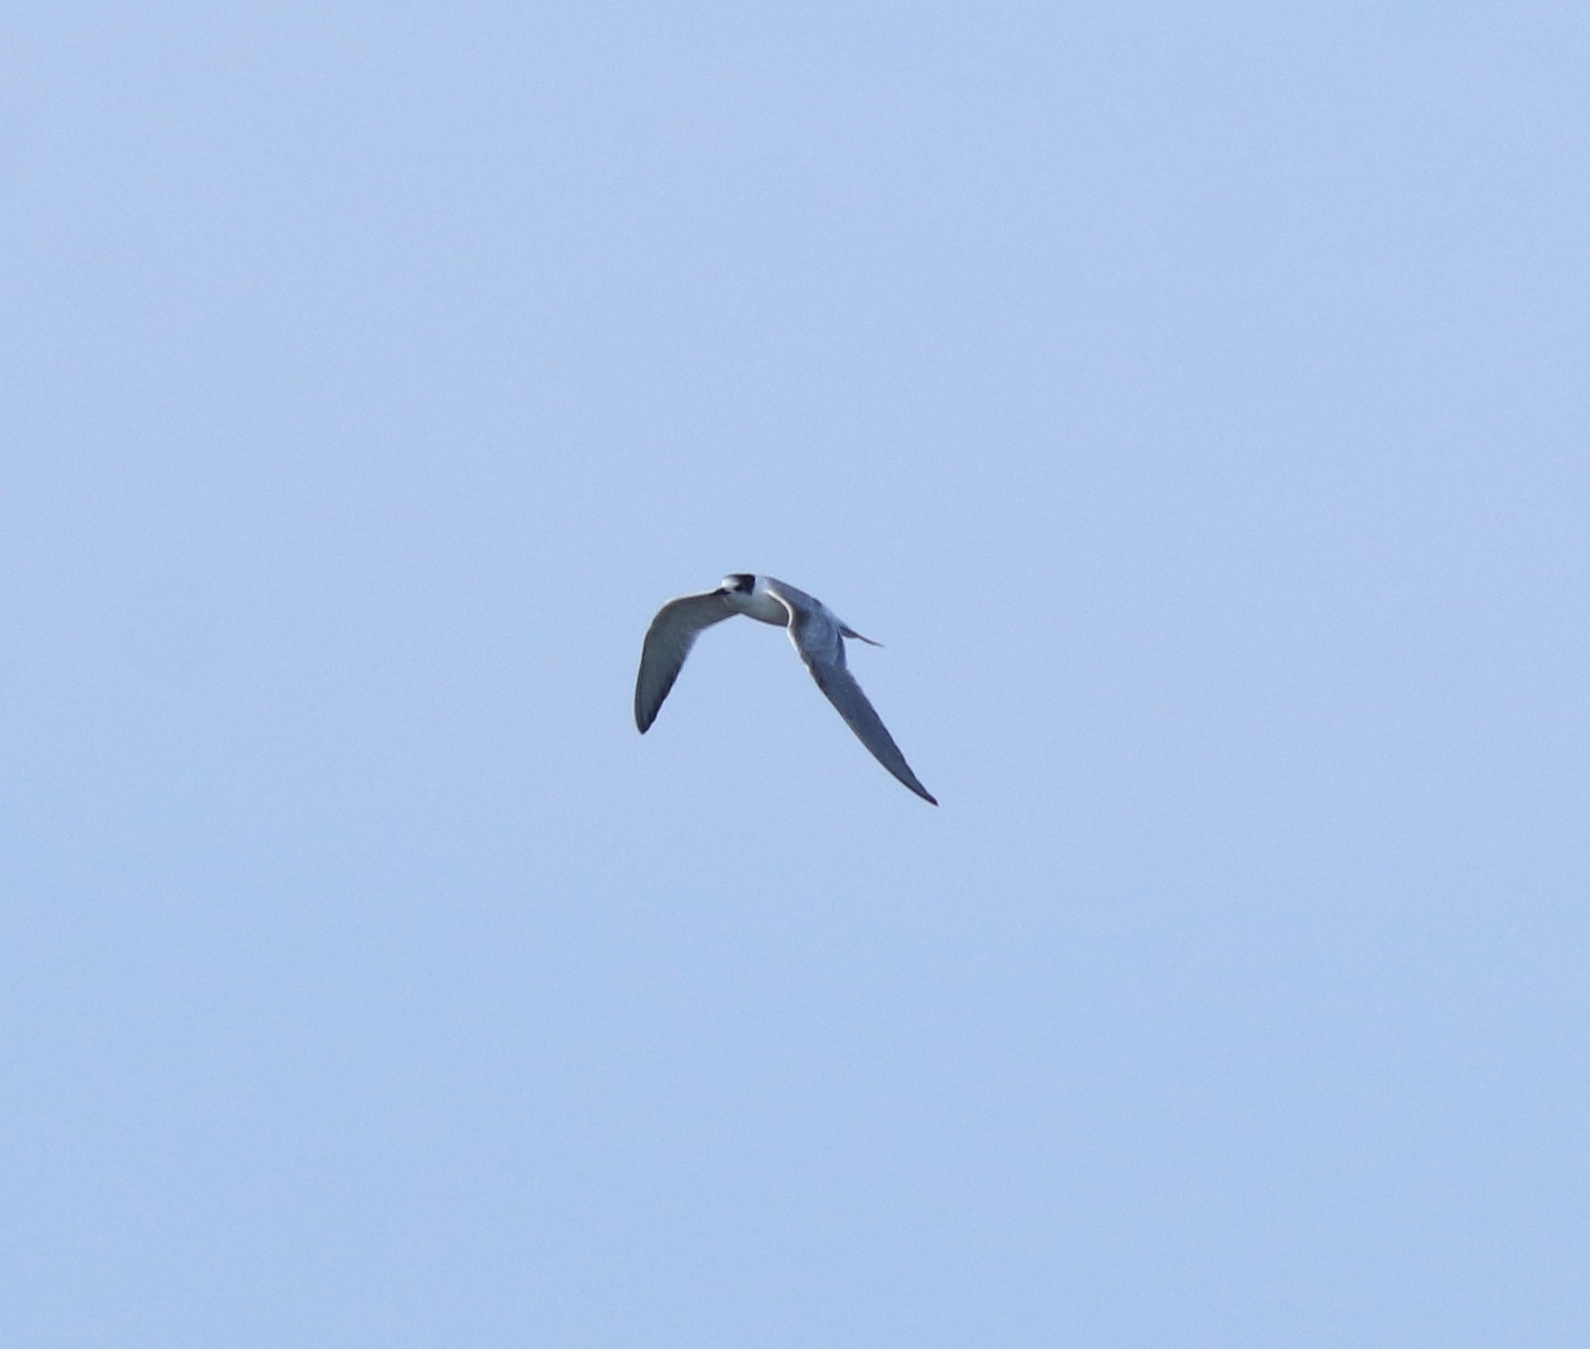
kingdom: Animalia
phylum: Chordata
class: Aves
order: Charadriiformes
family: Laridae
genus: Sterna
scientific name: Sterna hirundo
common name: Common tern
